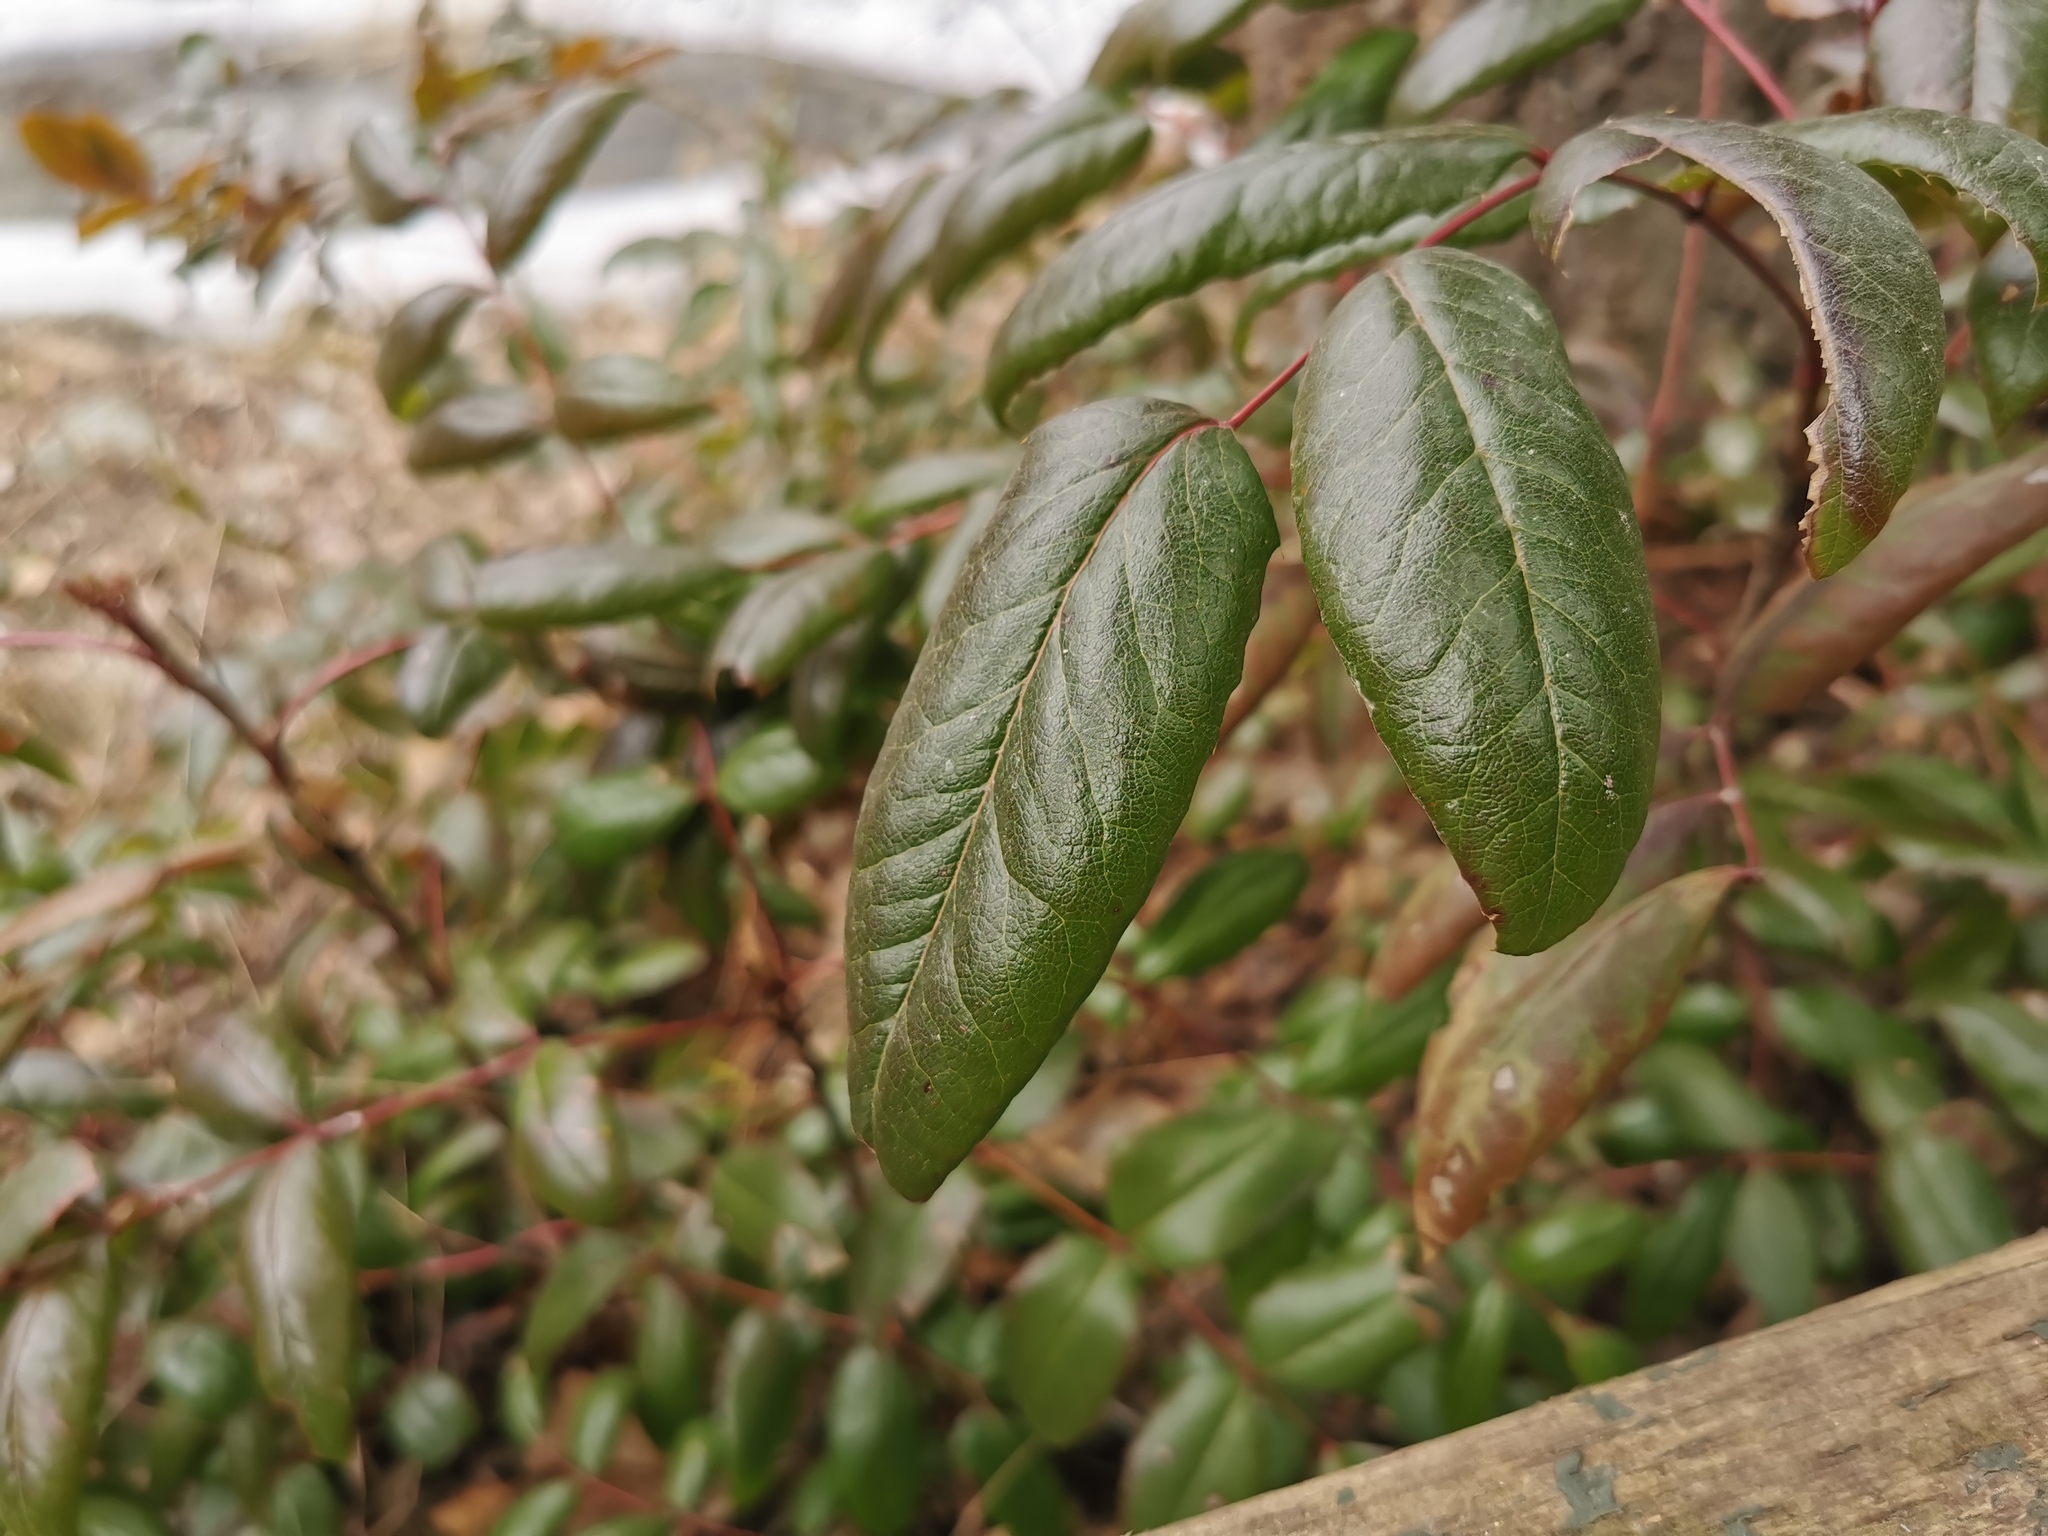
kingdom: Plantae
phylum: Tracheophyta
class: Magnoliopsida
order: Ranunculales
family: Berberidaceae
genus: Mahonia
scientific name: Mahonia aquifolium
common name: Oregon-grape
